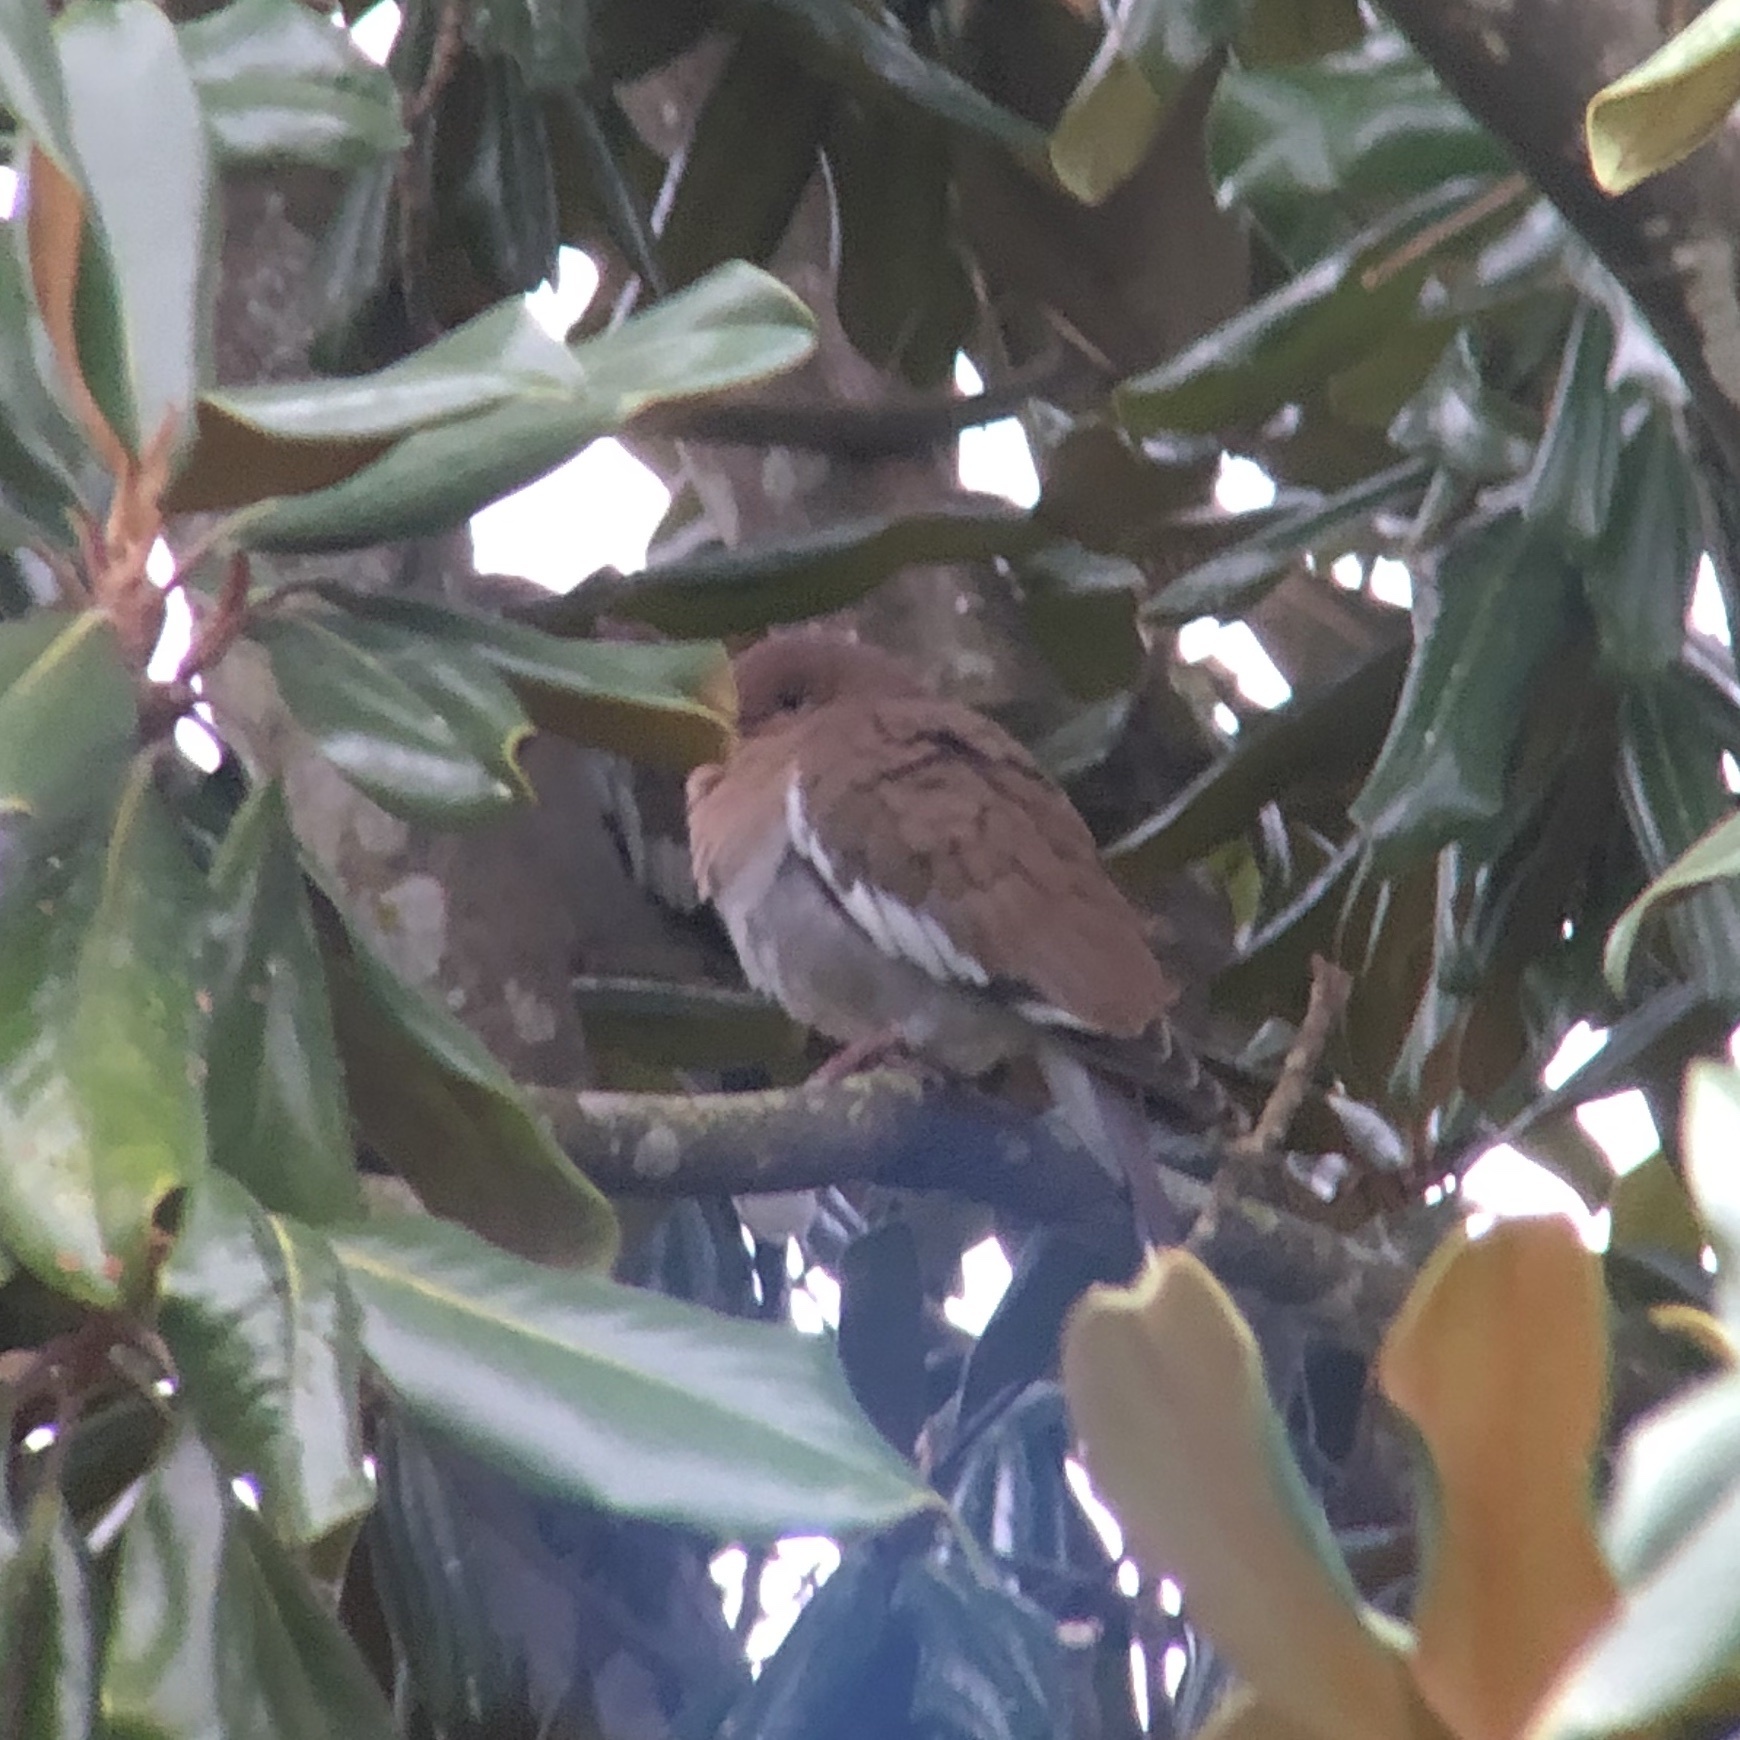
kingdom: Animalia
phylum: Chordata
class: Aves
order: Columbiformes
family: Columbidae
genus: Zenaida
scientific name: Zenaida asiatica
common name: White-winged dove
